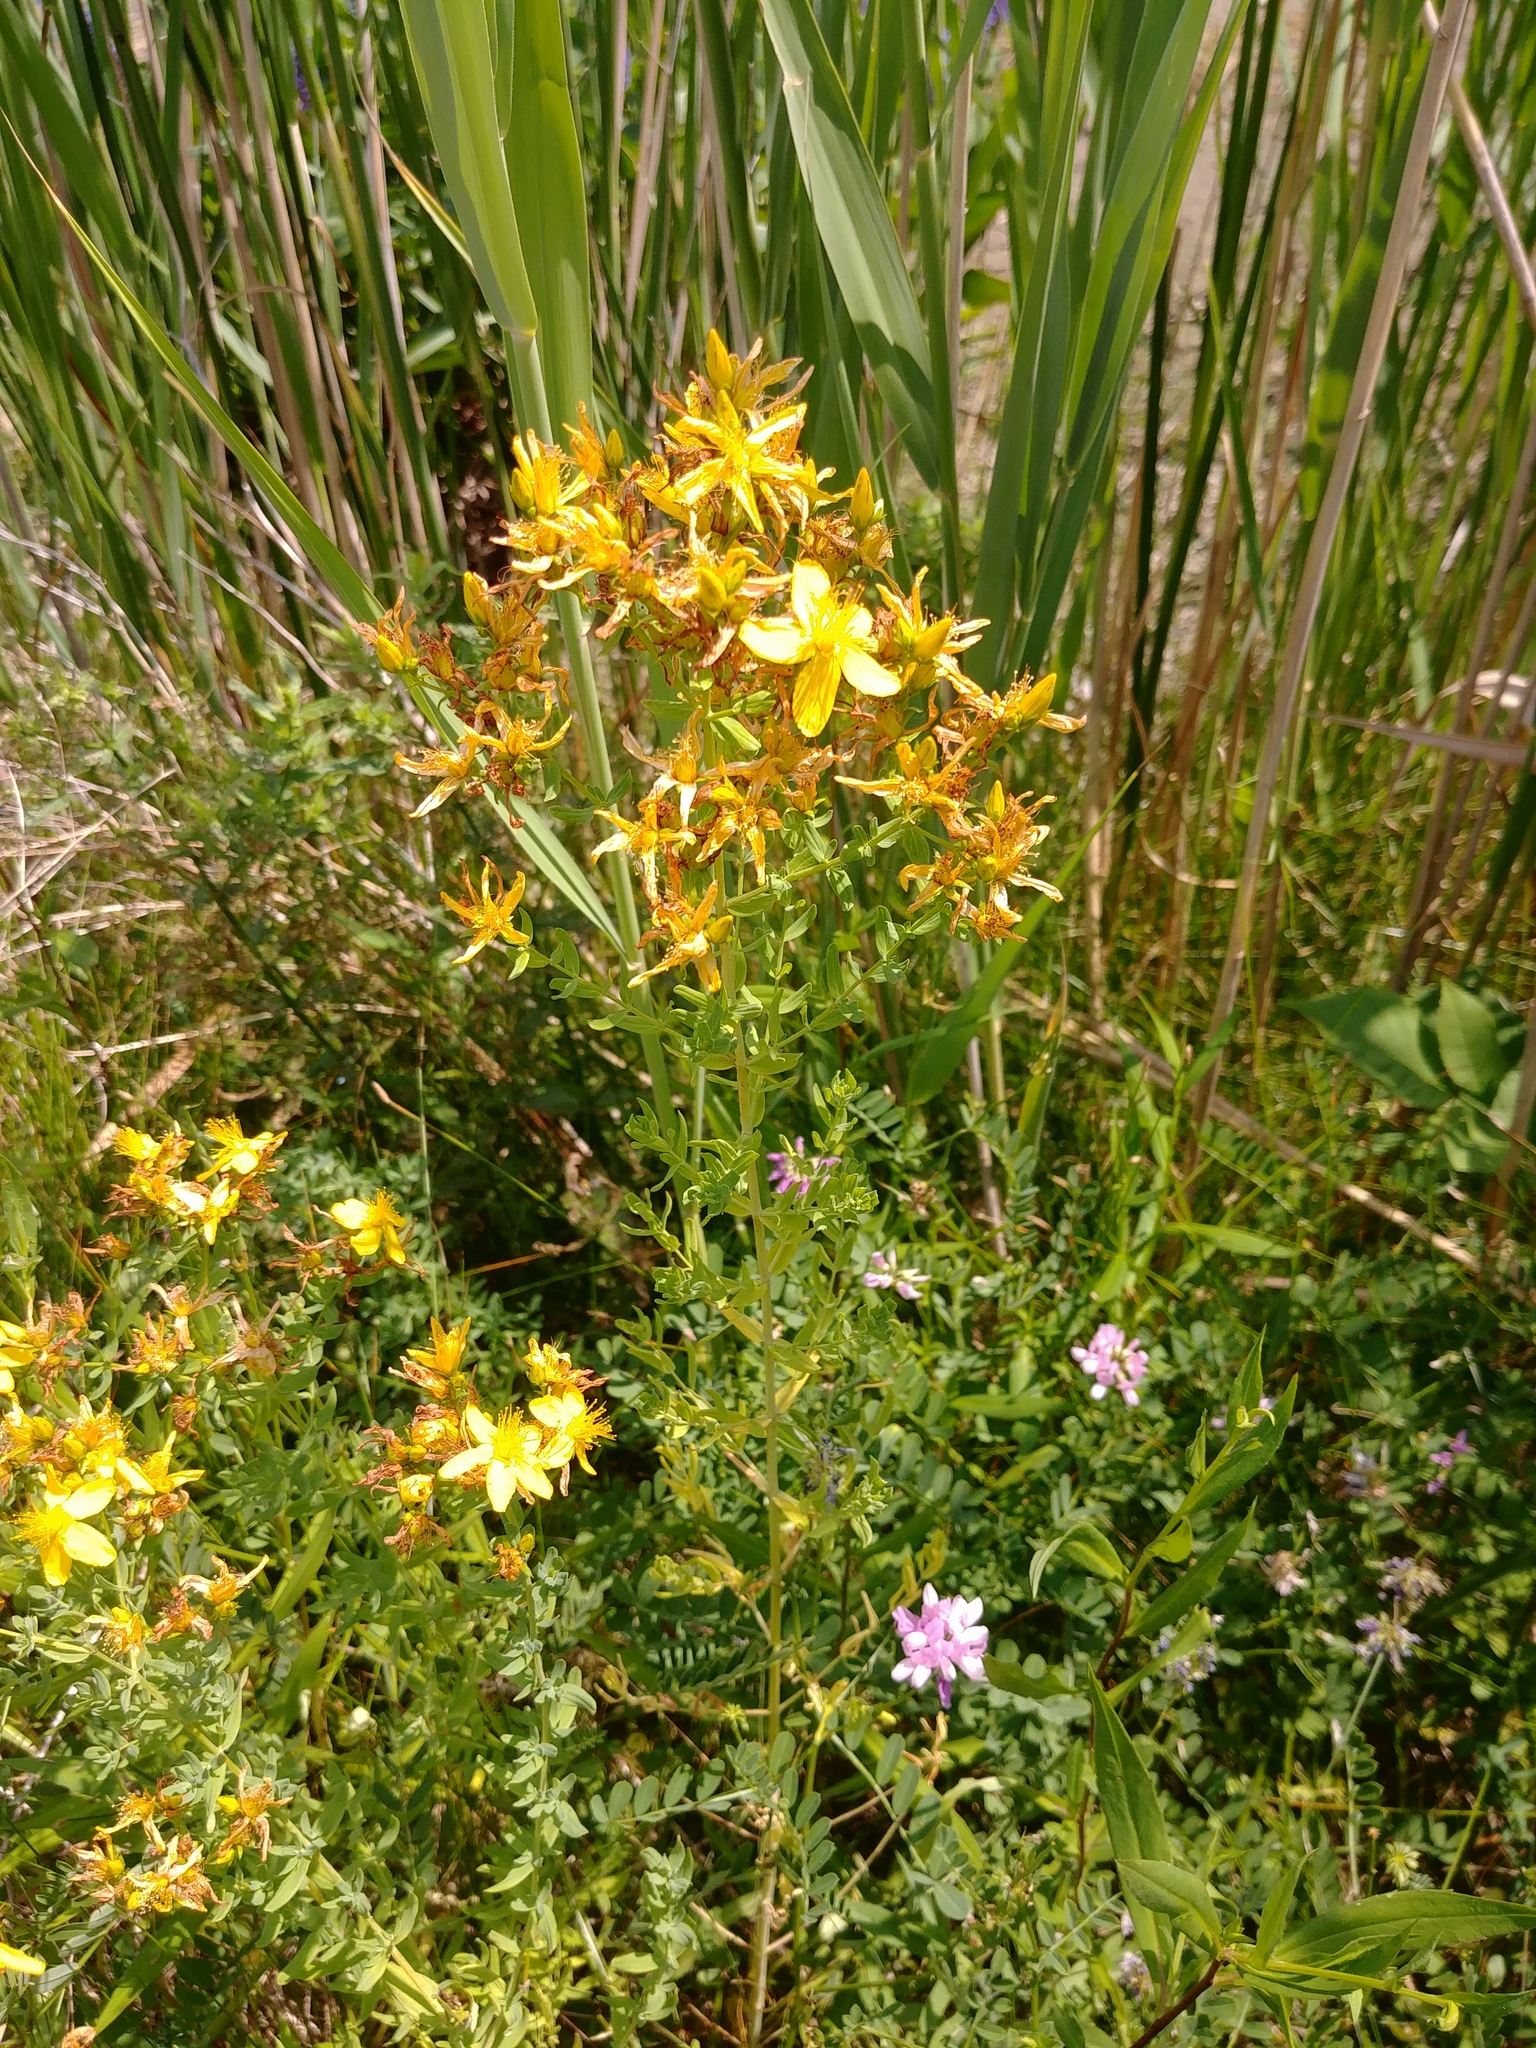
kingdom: Plantae
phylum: Tracheophyta
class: Magnoliopsida
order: Malpighiales
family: Hypericaceae
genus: Hypericum
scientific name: Hypericum perforatum
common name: Common st. johnswort
